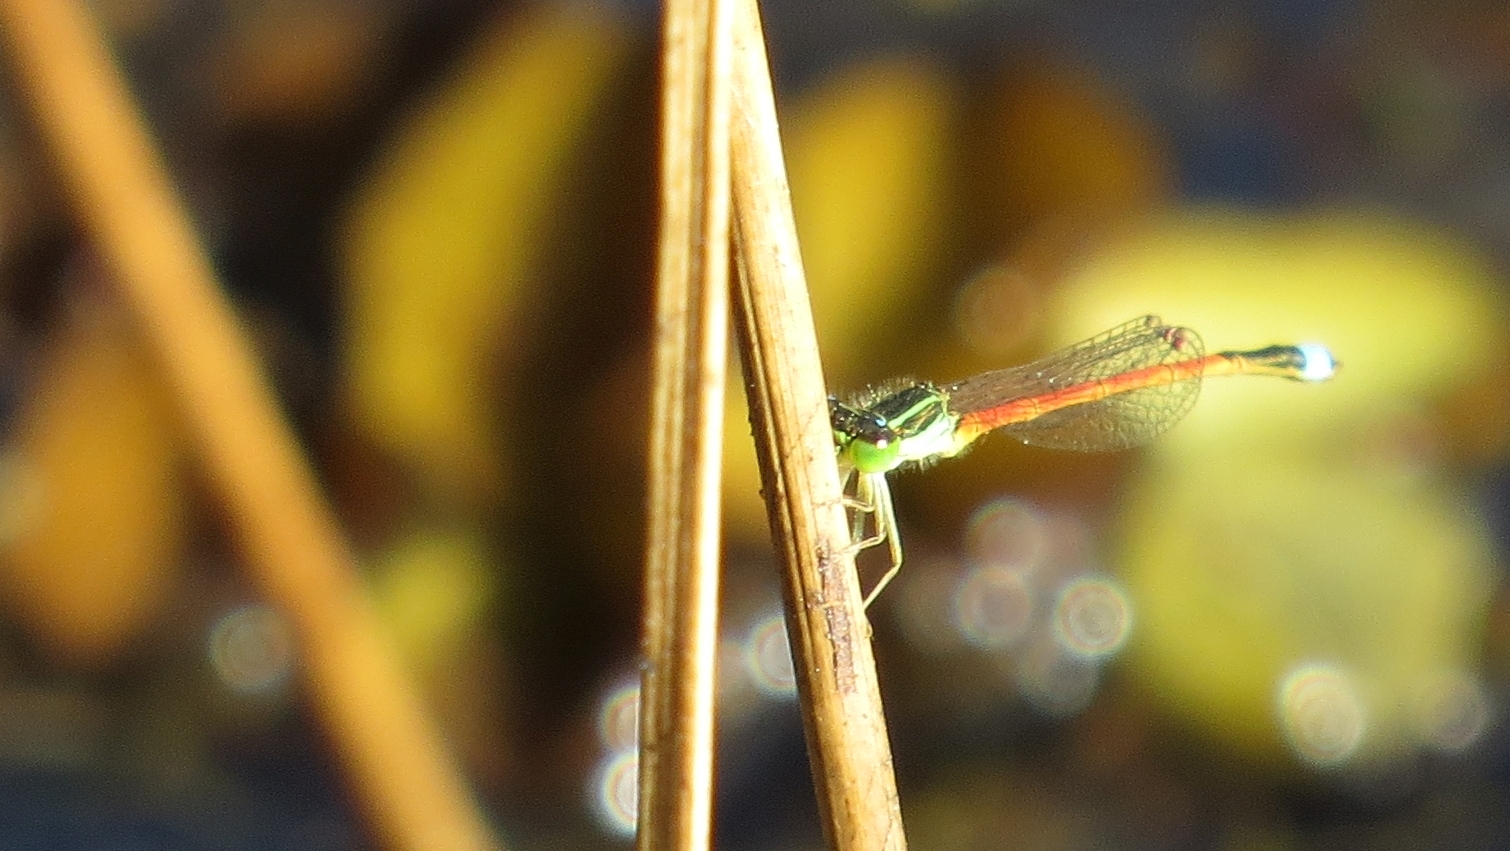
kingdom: Animalia
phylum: Arthropoda
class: Insecta
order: Odonata
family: Coenagrionidae
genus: Ischnura
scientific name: Ischnura aurora
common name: Gossamer damselfly
